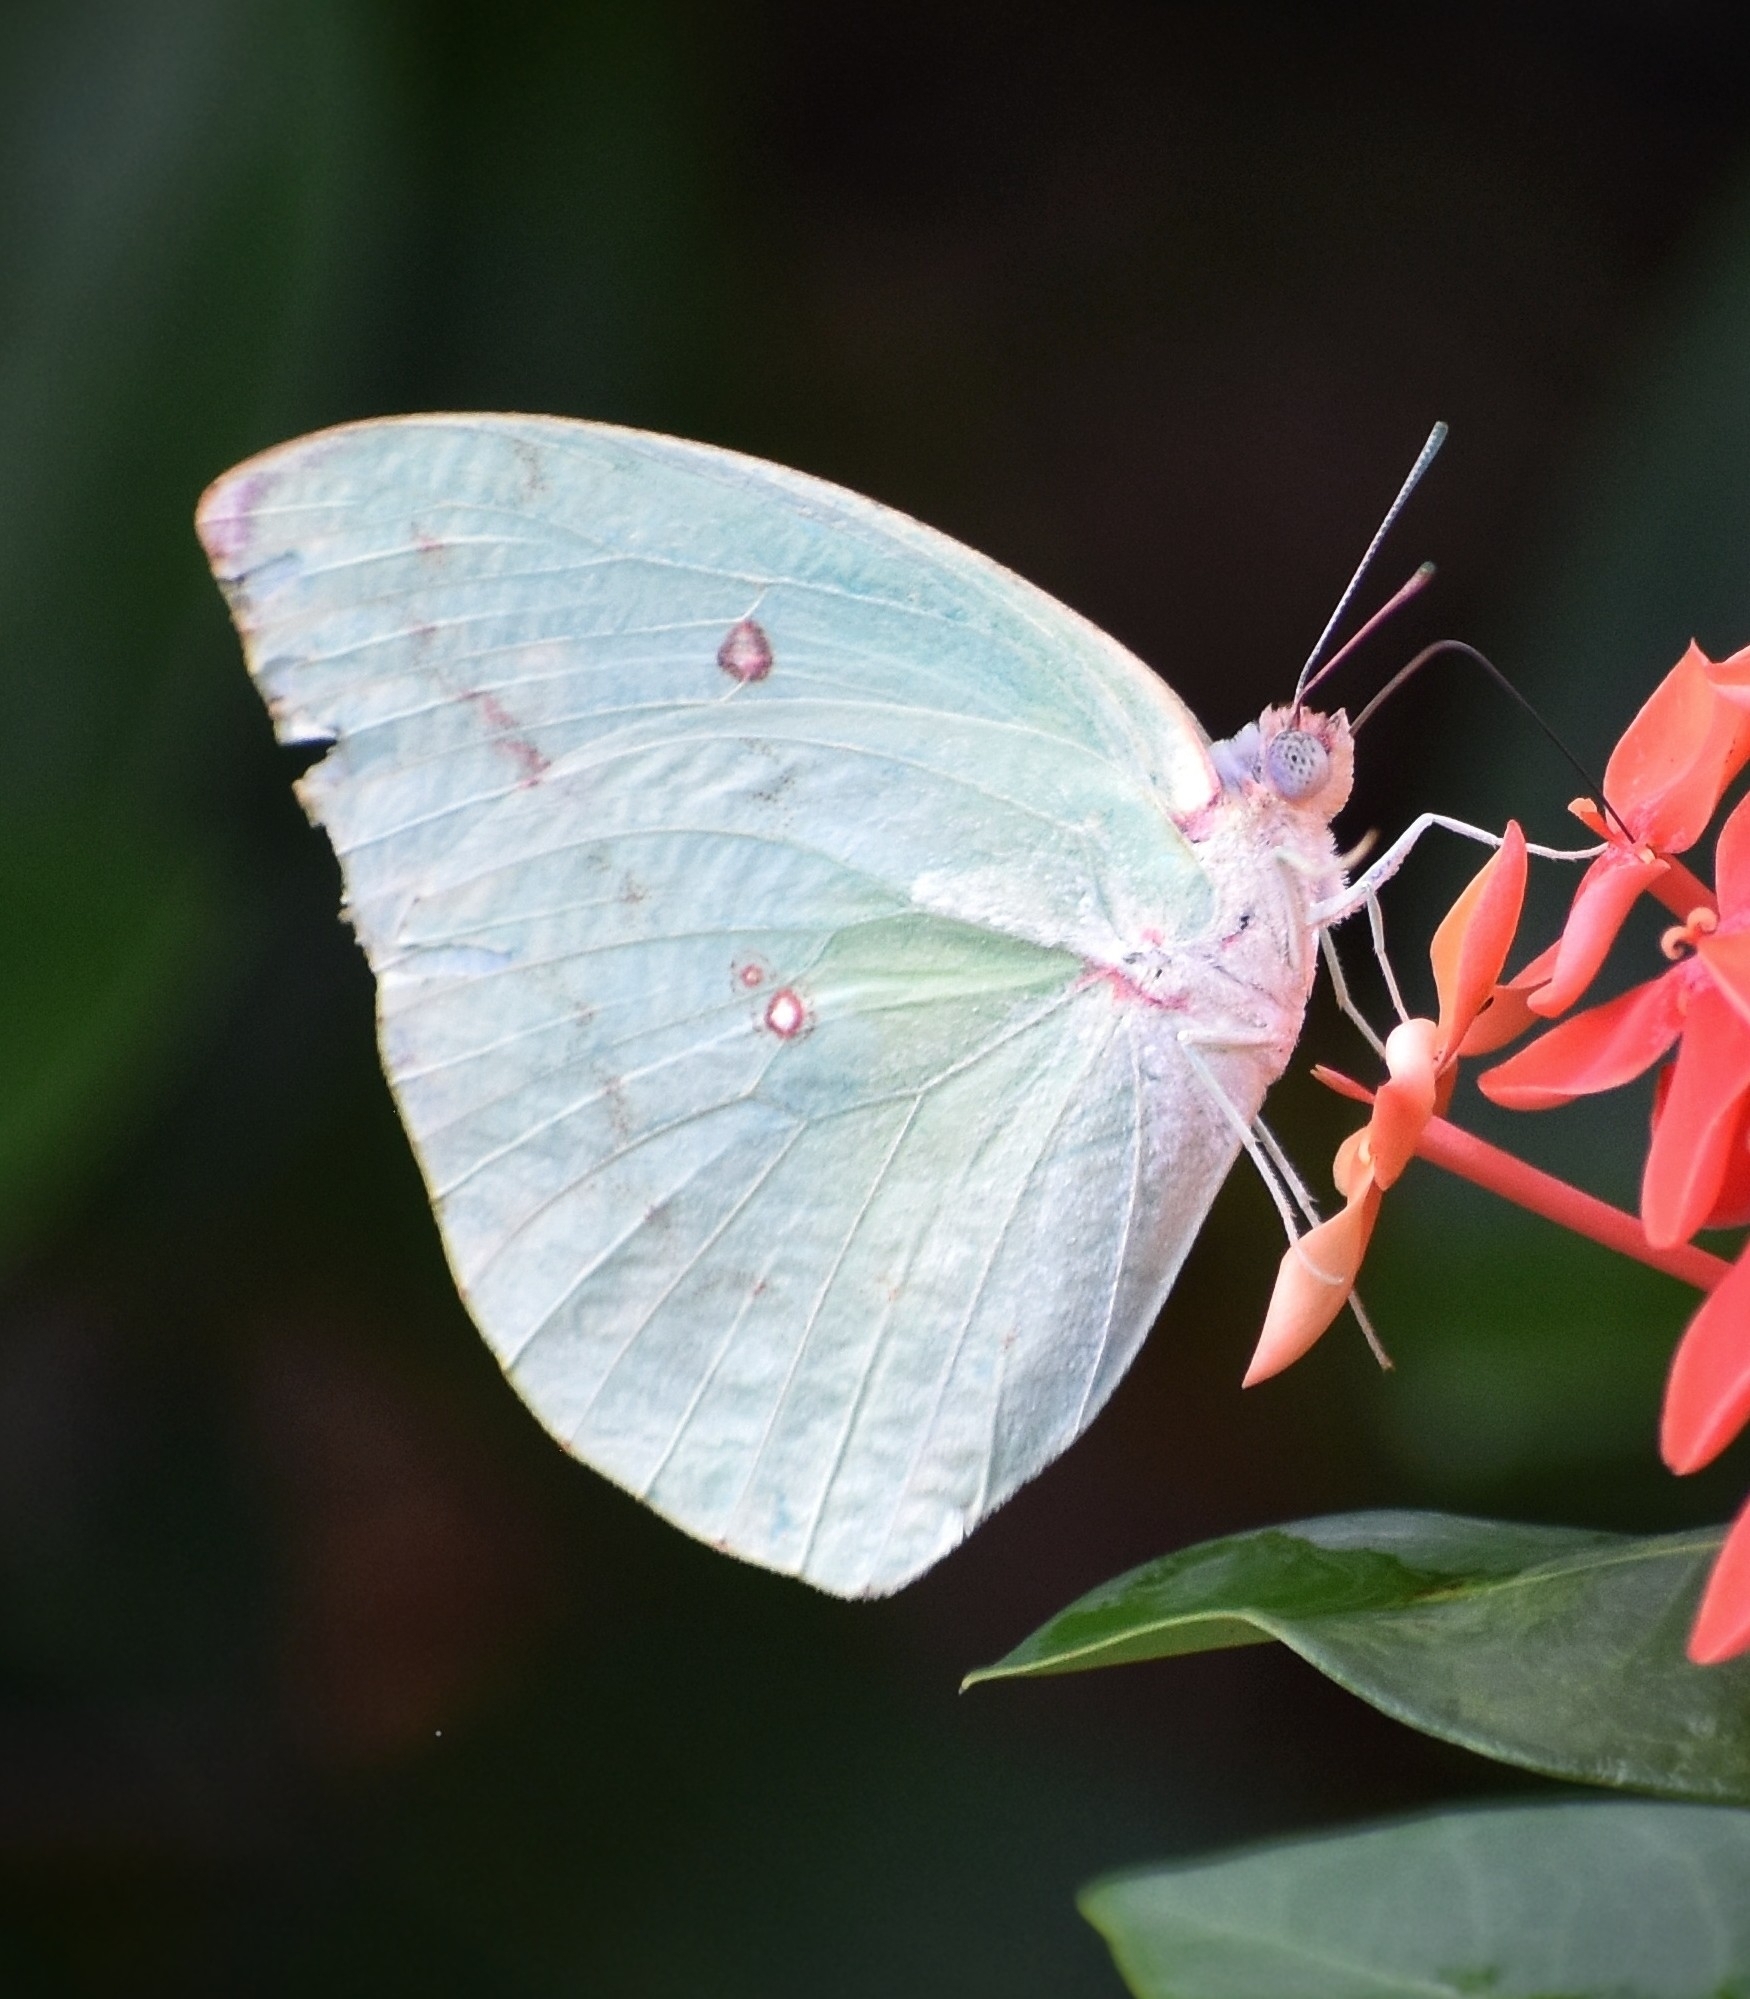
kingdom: Animalia
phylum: Arthropoda
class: Insecta
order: Lepidoptera
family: Pieridae
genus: Catopsilia
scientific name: Catopsilia pomona
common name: Common emigrant
